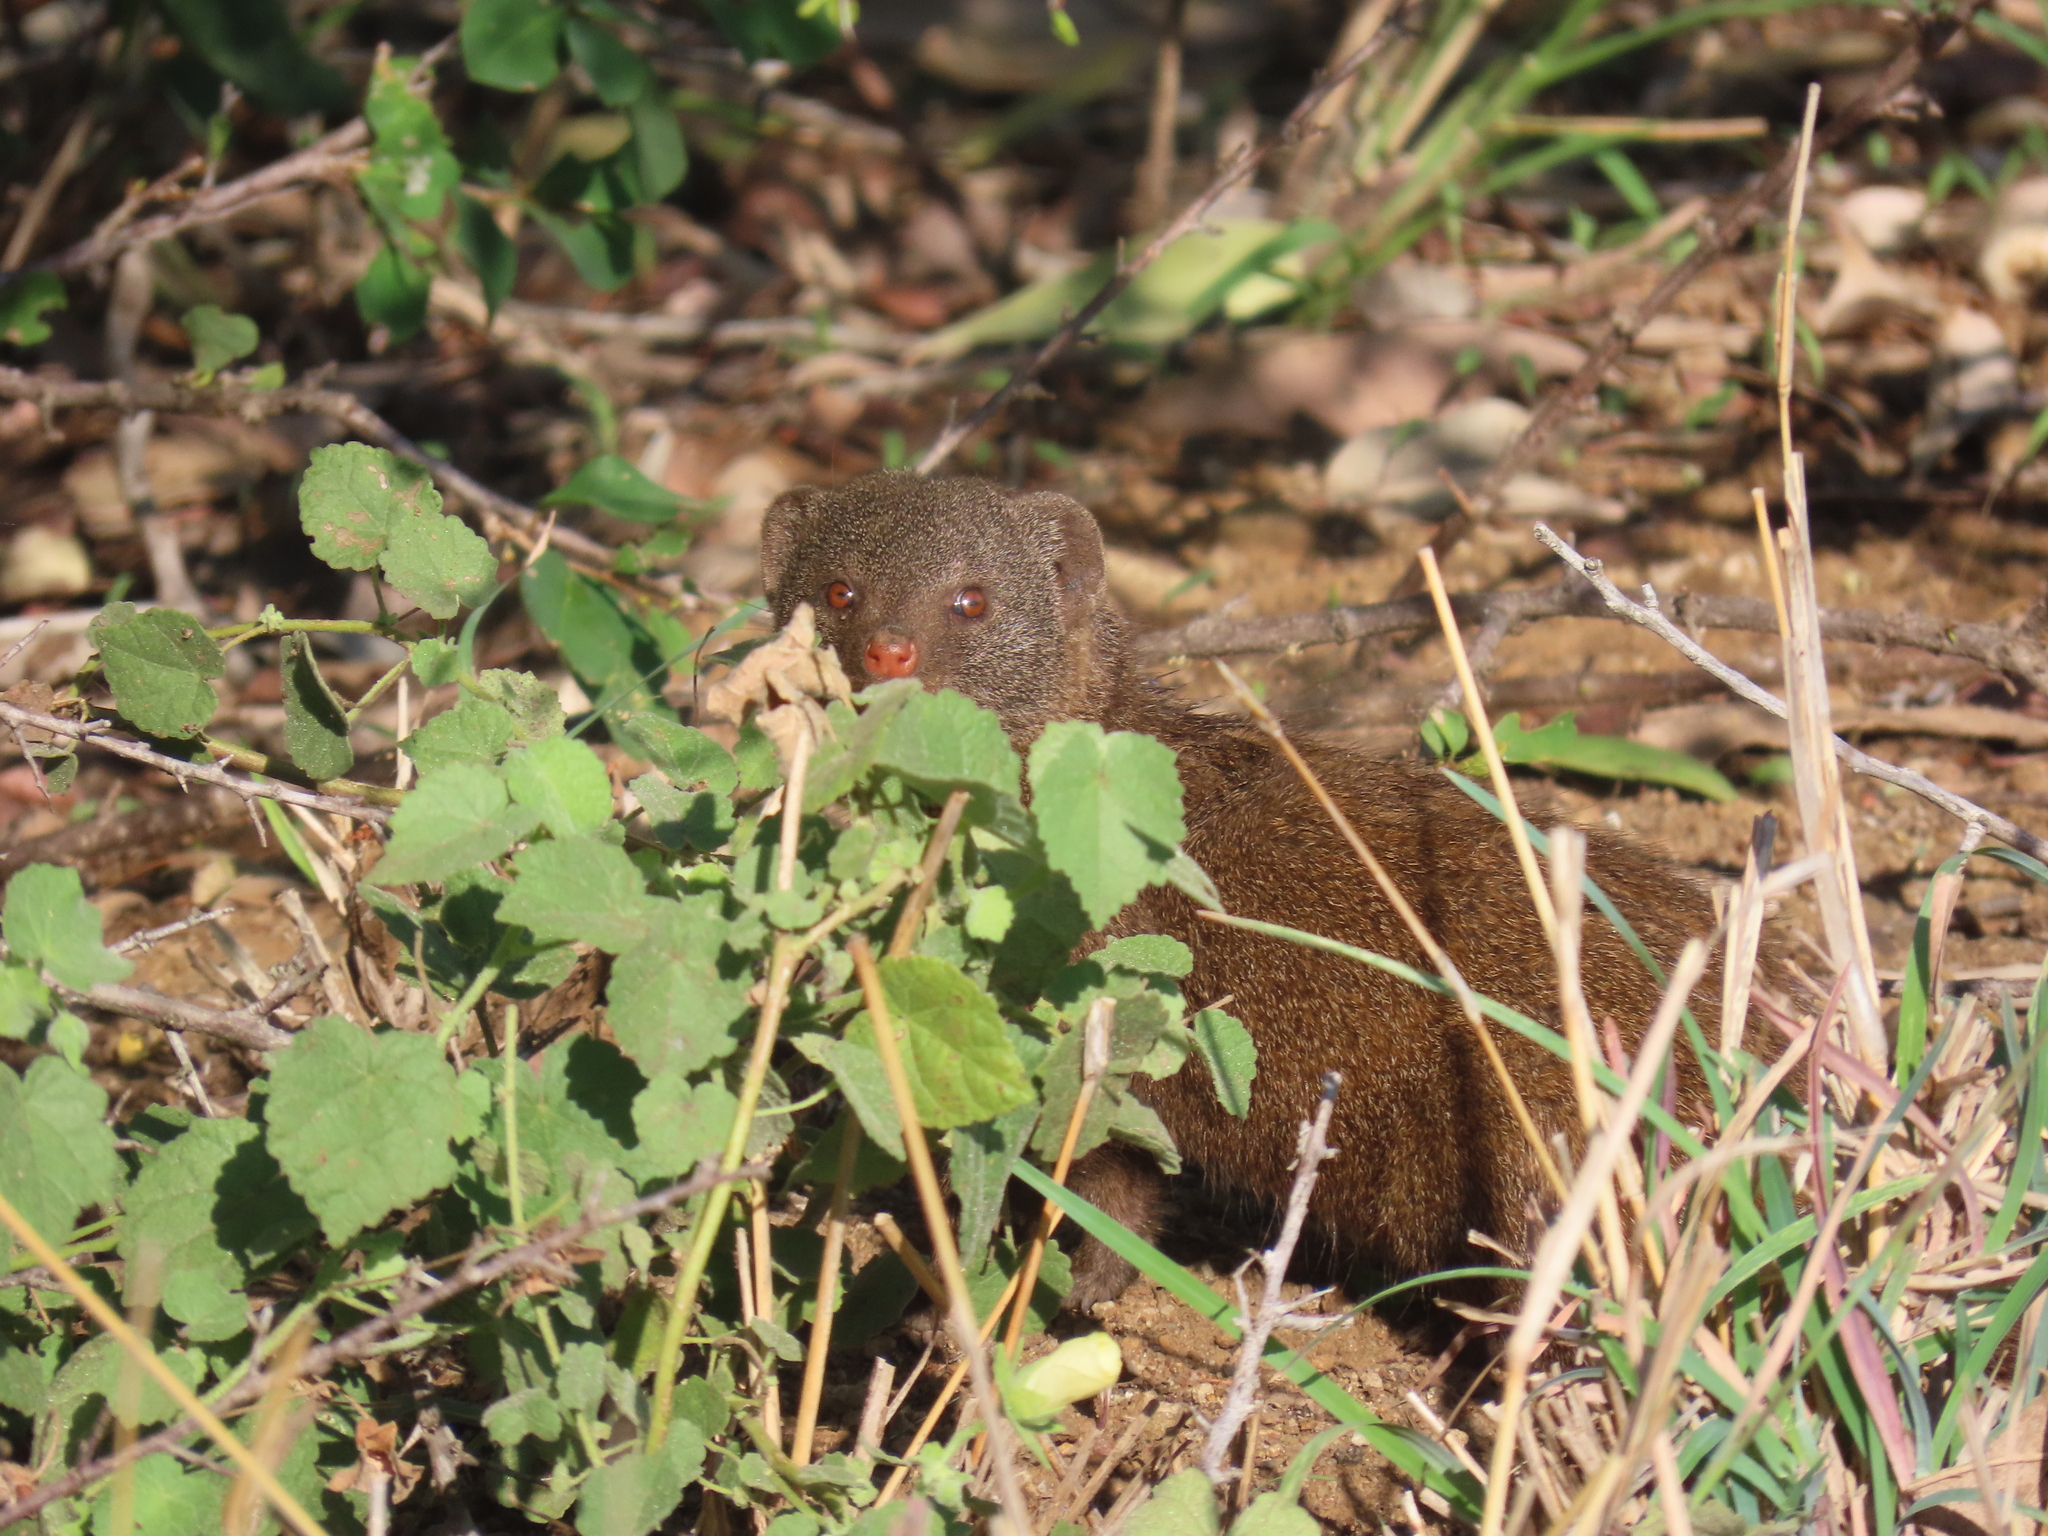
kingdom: Animalia
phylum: Chordata
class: Mammalia
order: Carnivora
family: Herpestidae
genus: Helogale
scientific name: Helogale parvula
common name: Common dwarf mongoose
